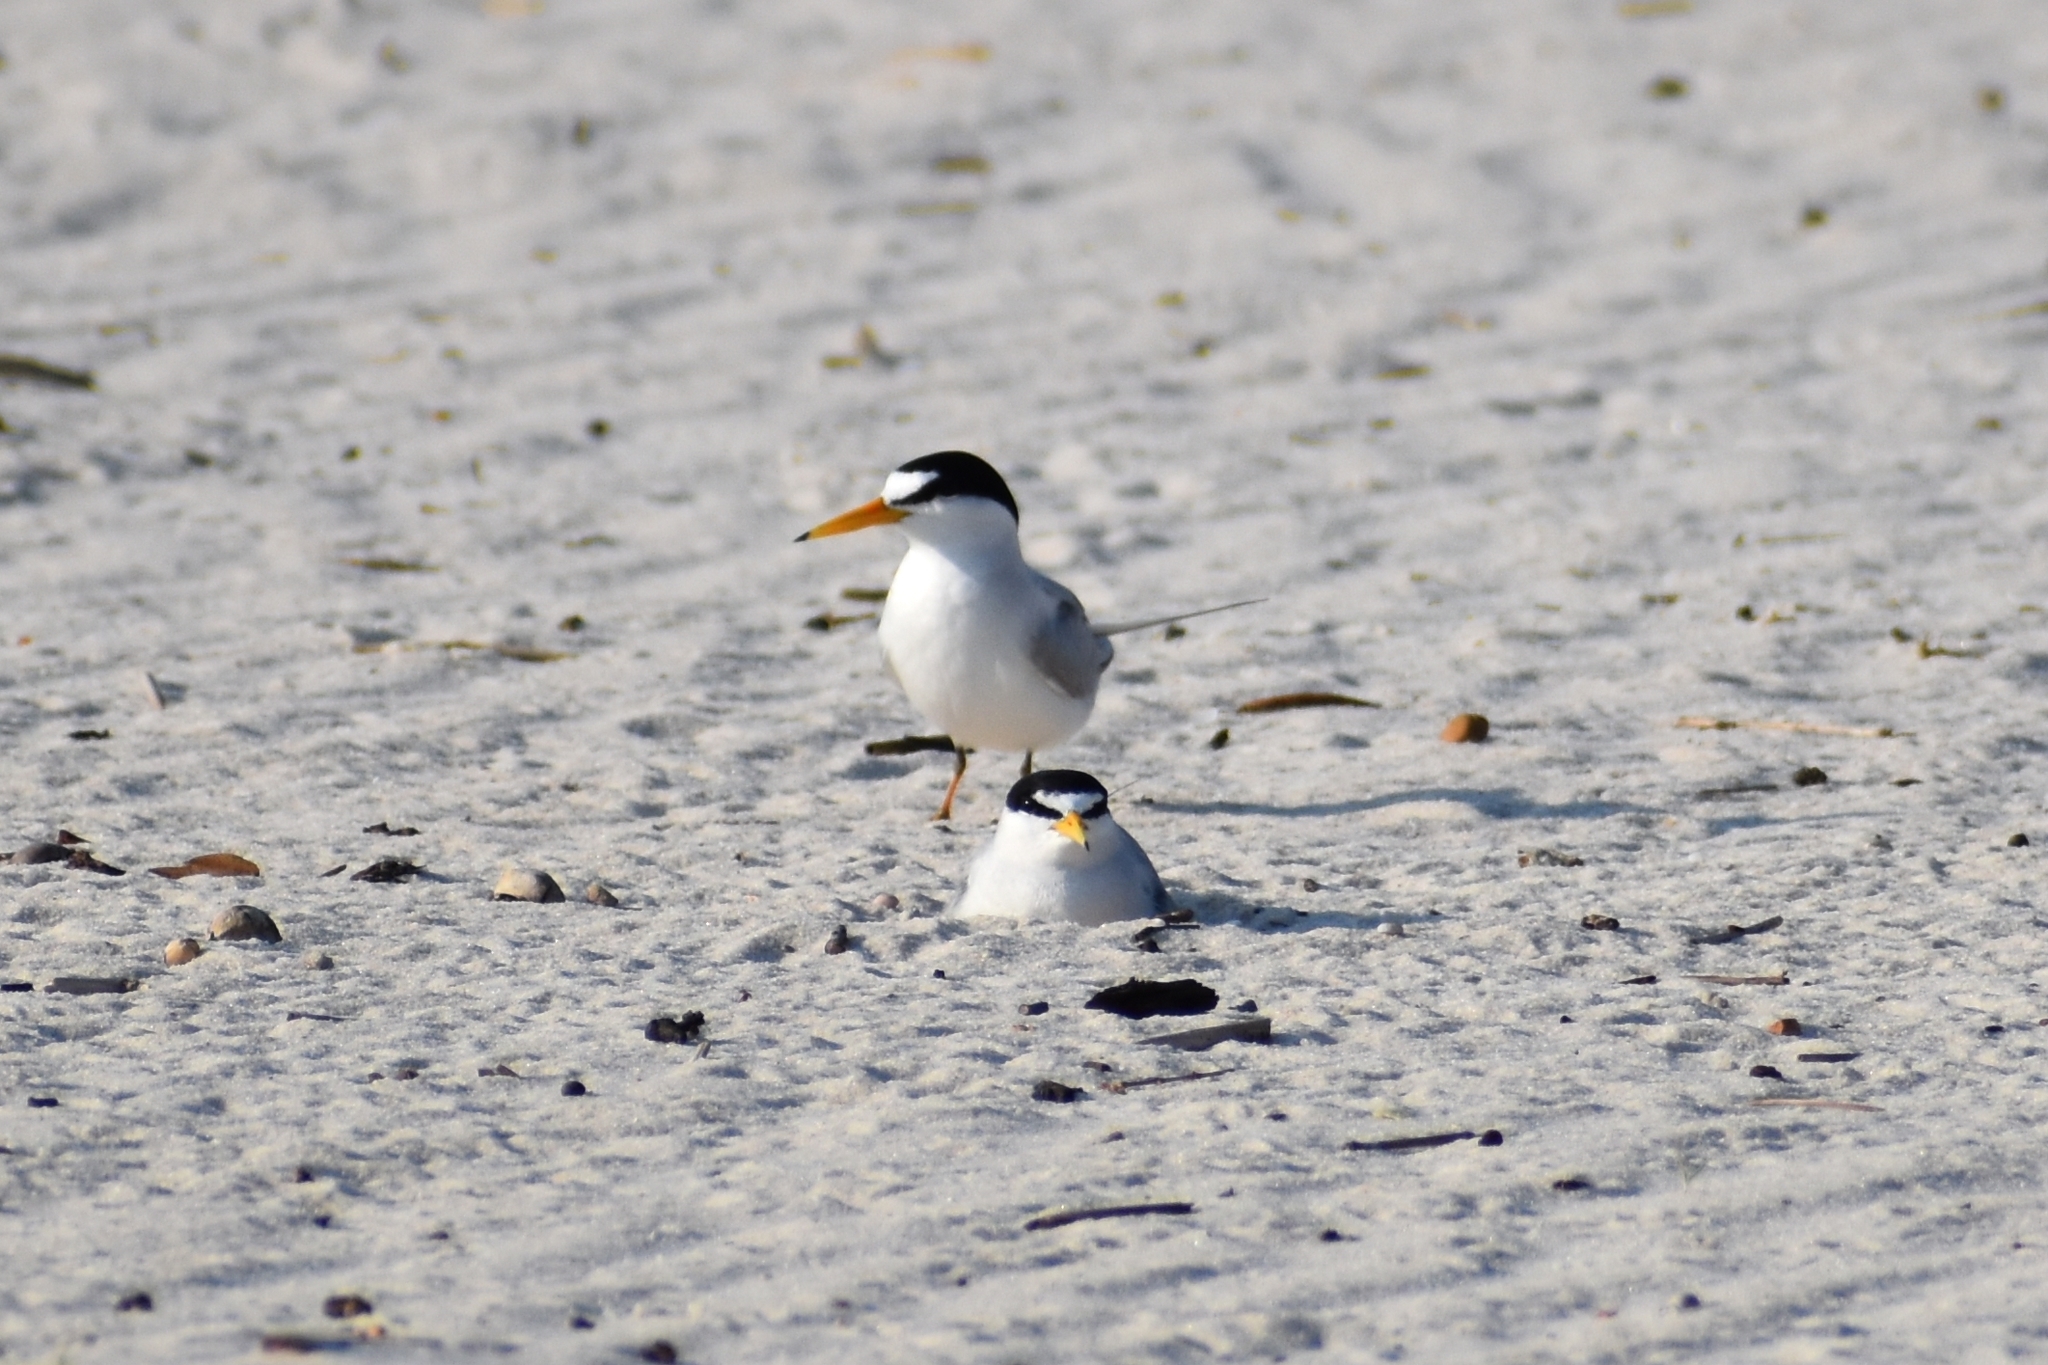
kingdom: Animalia
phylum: Chordata
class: Aves
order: Charadriiformes
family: Laridae
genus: Sternula
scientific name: Sternula antillarum
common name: Least tern
